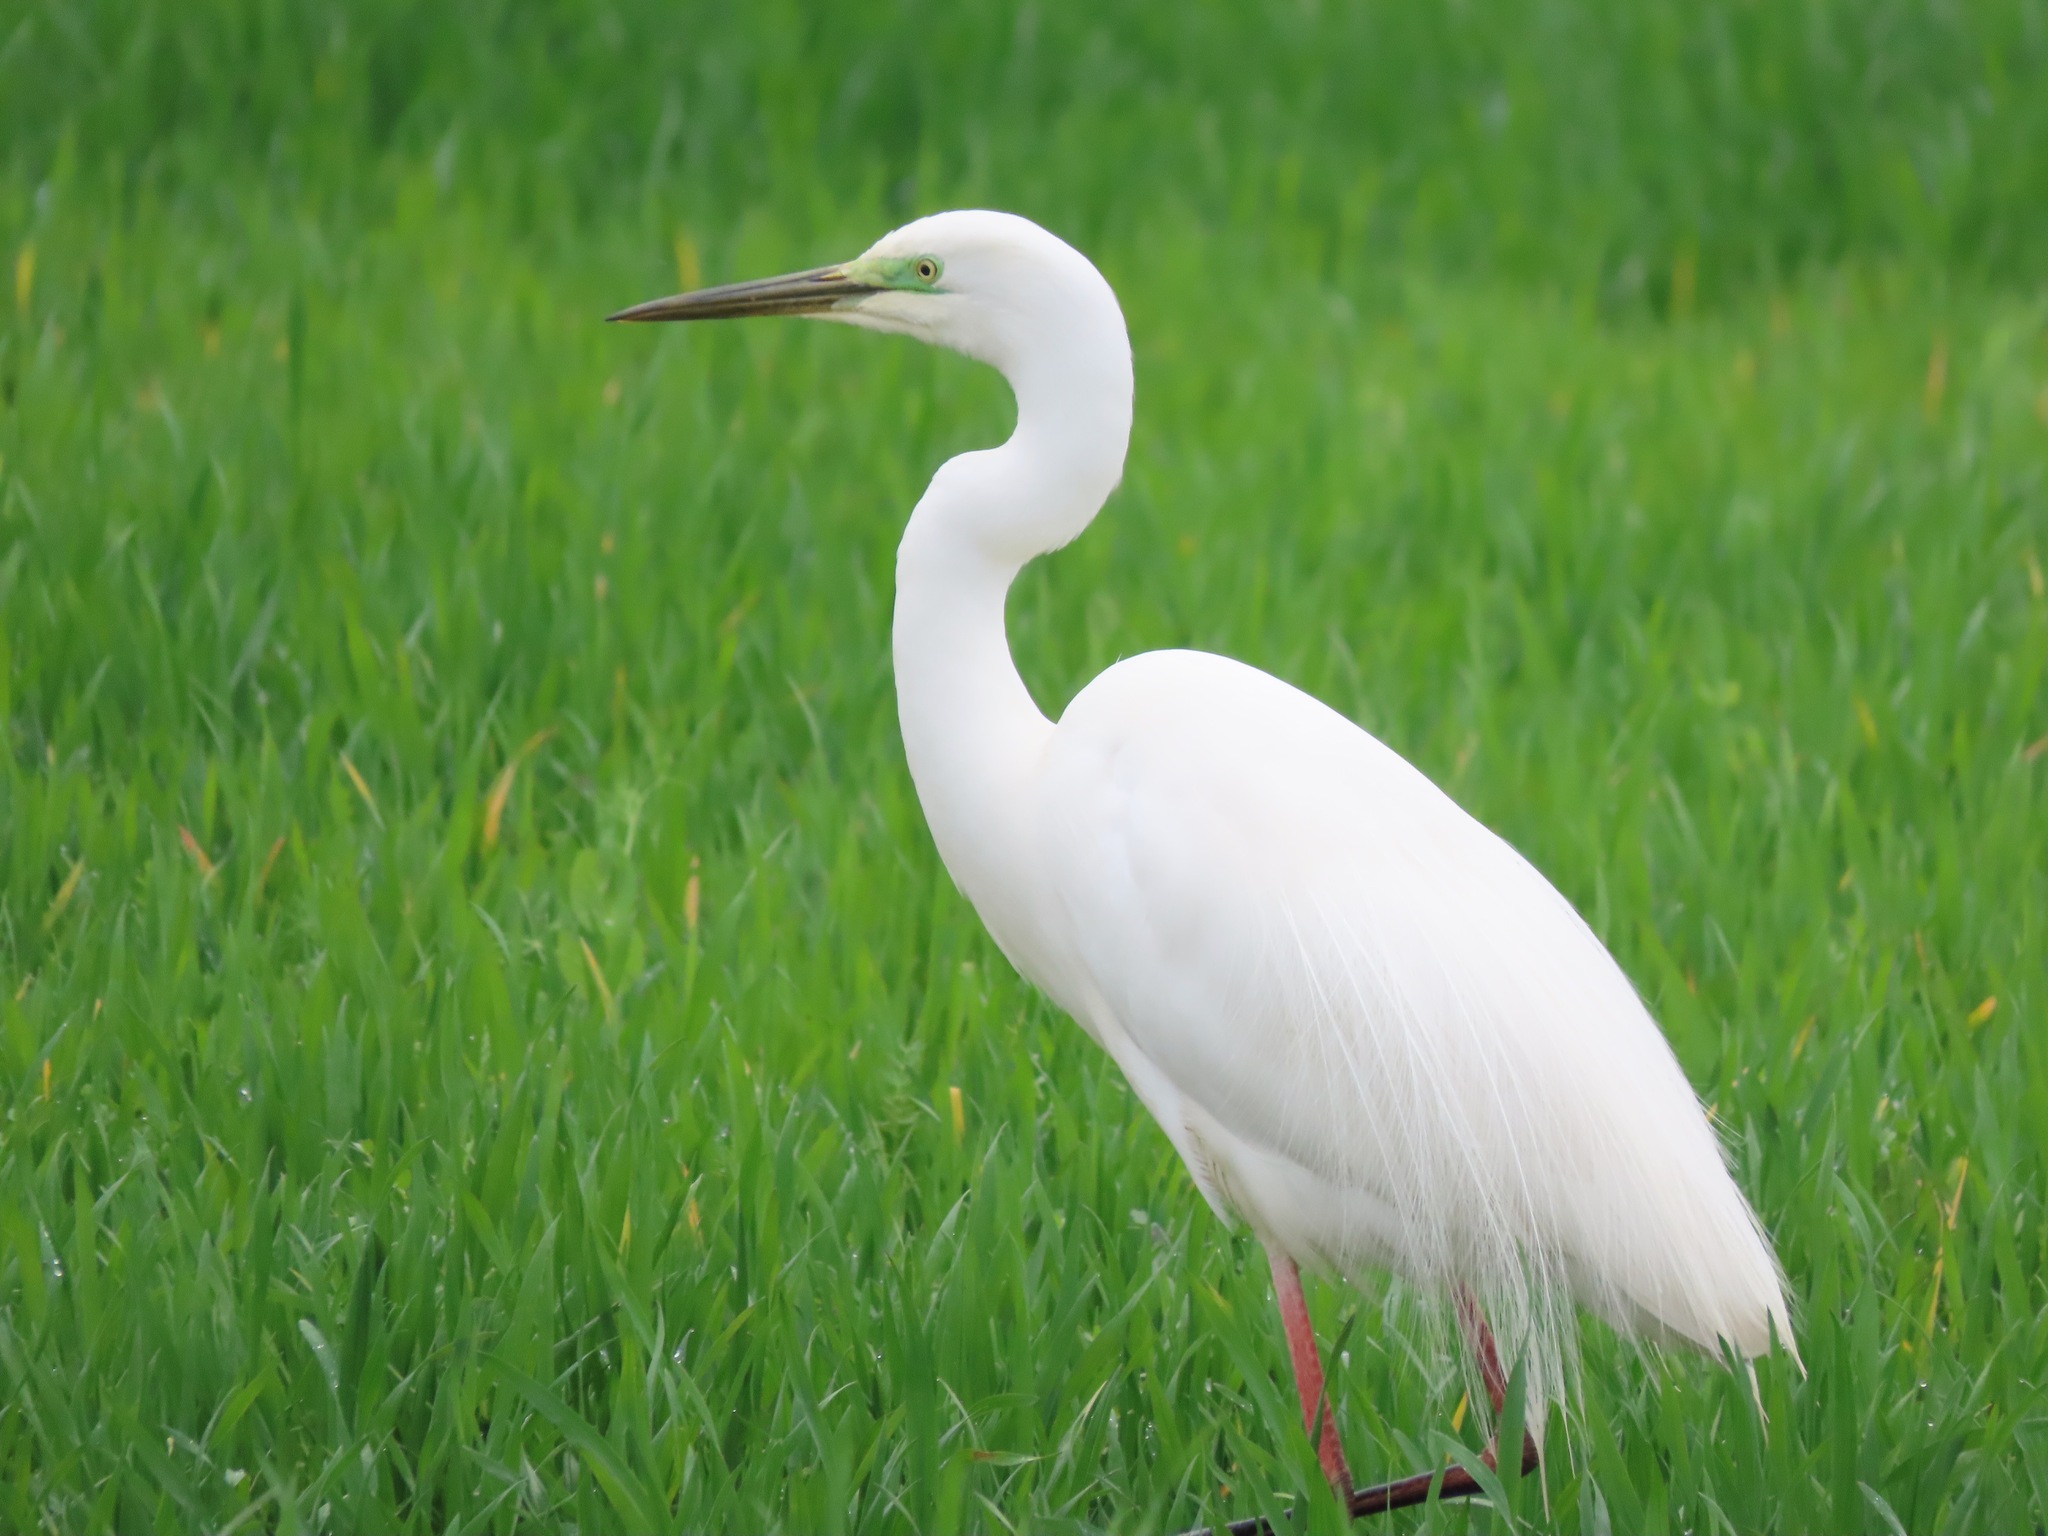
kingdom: Animalia
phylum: Chordata
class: Aves
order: Pelecaniformes
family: Ardeidae
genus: Ardea
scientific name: Ardea alba
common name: Great egret
